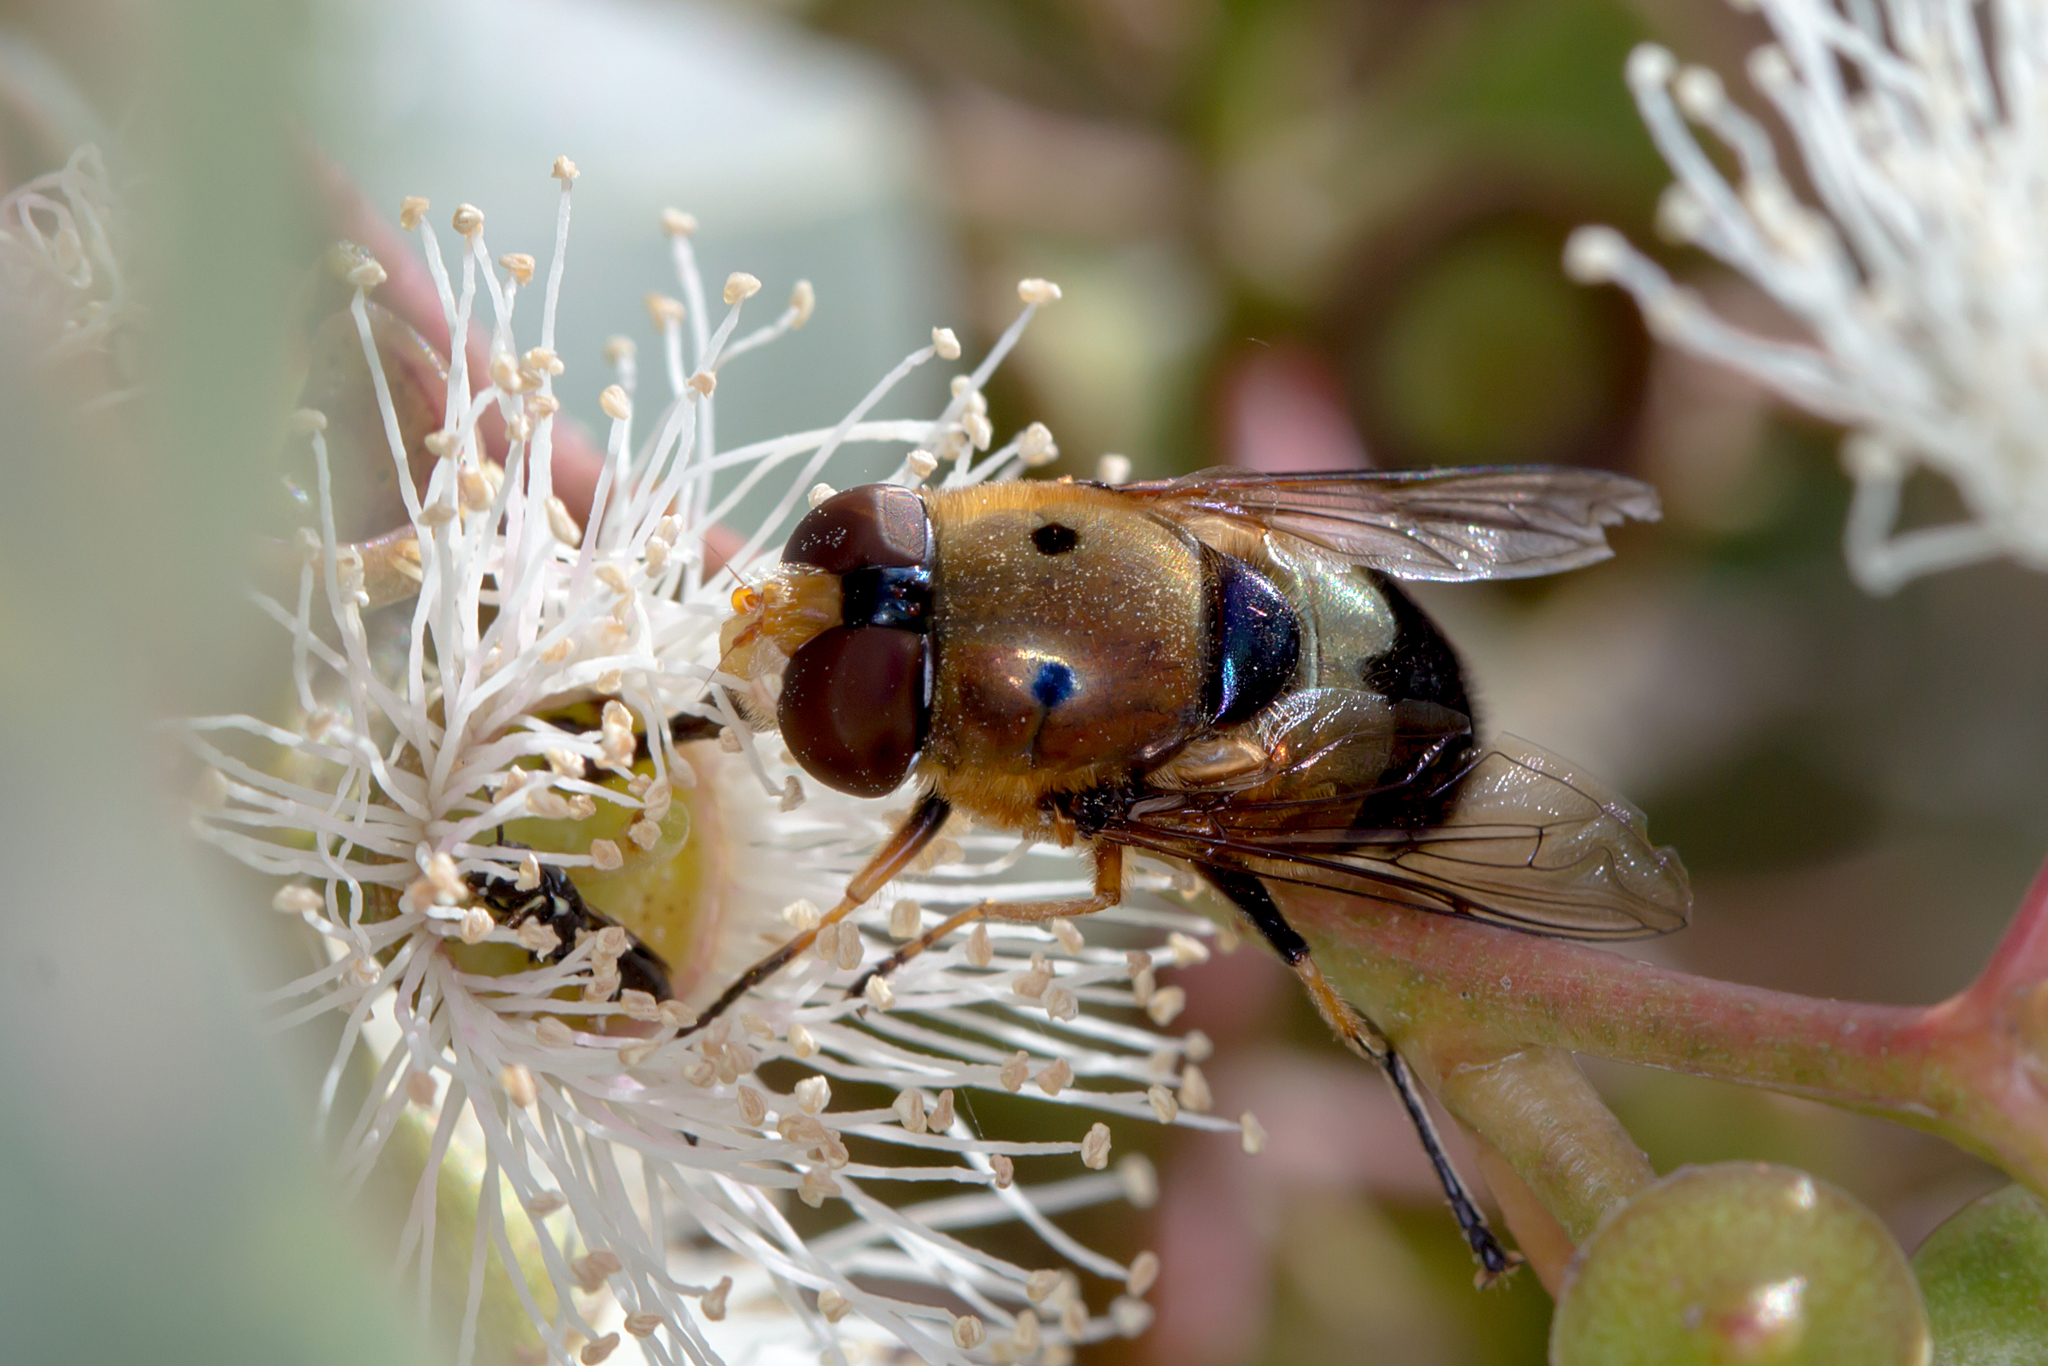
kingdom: Animalia
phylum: Arthropoda
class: Insecta
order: Diptera
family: Syrphidae
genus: Austalis
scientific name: Austalis pulchella
